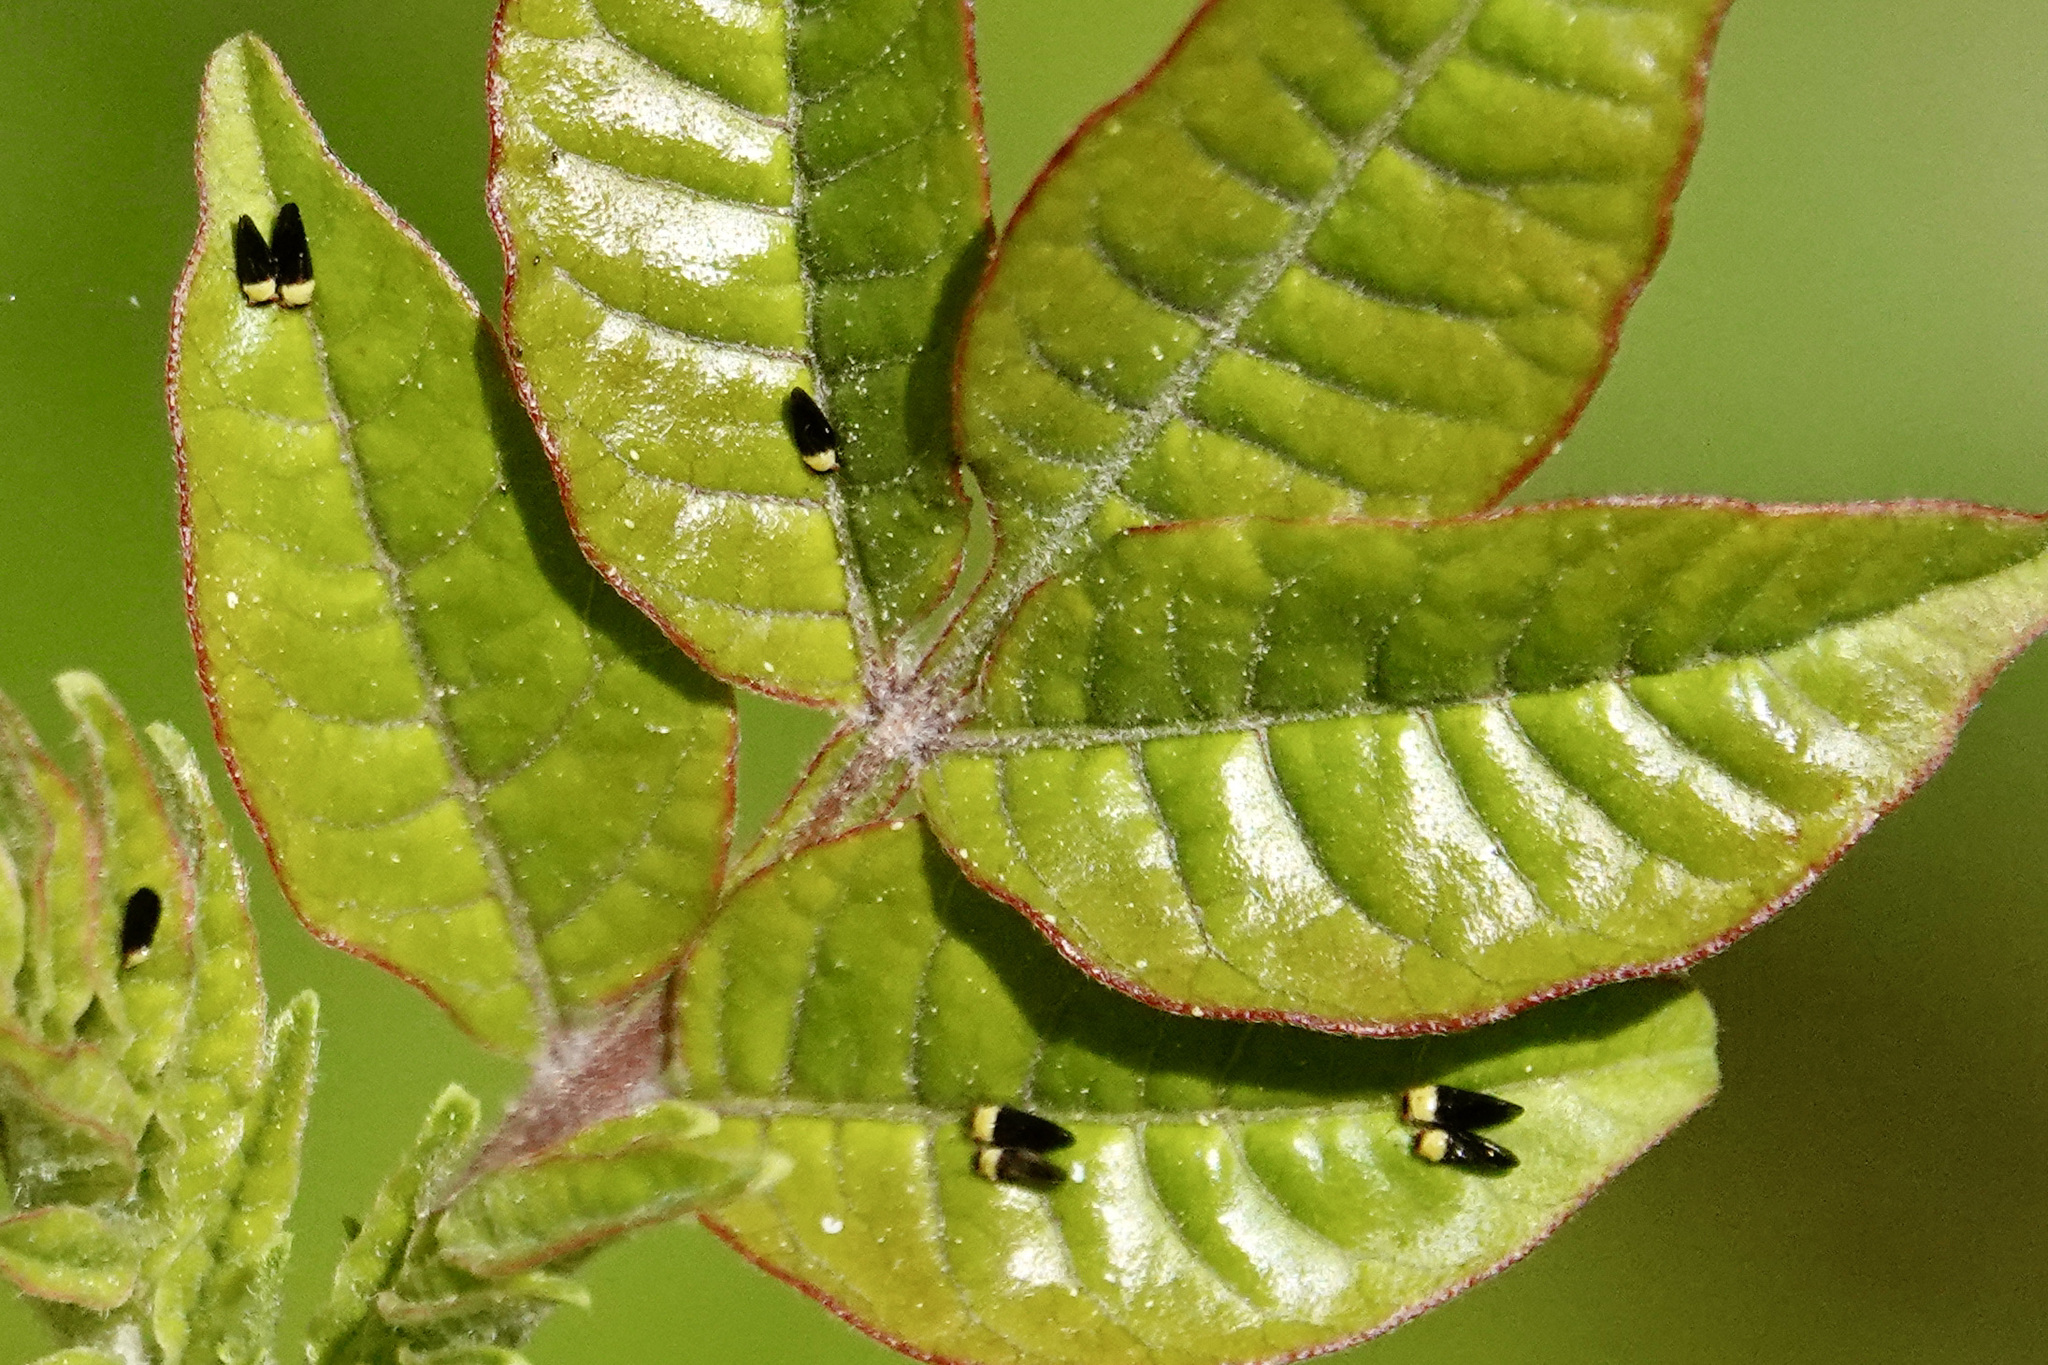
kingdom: Animalia
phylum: Arthropoda
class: Insecta
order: Hemiptera
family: Calophyidae
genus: Calophya
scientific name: Calophya nigripennis
